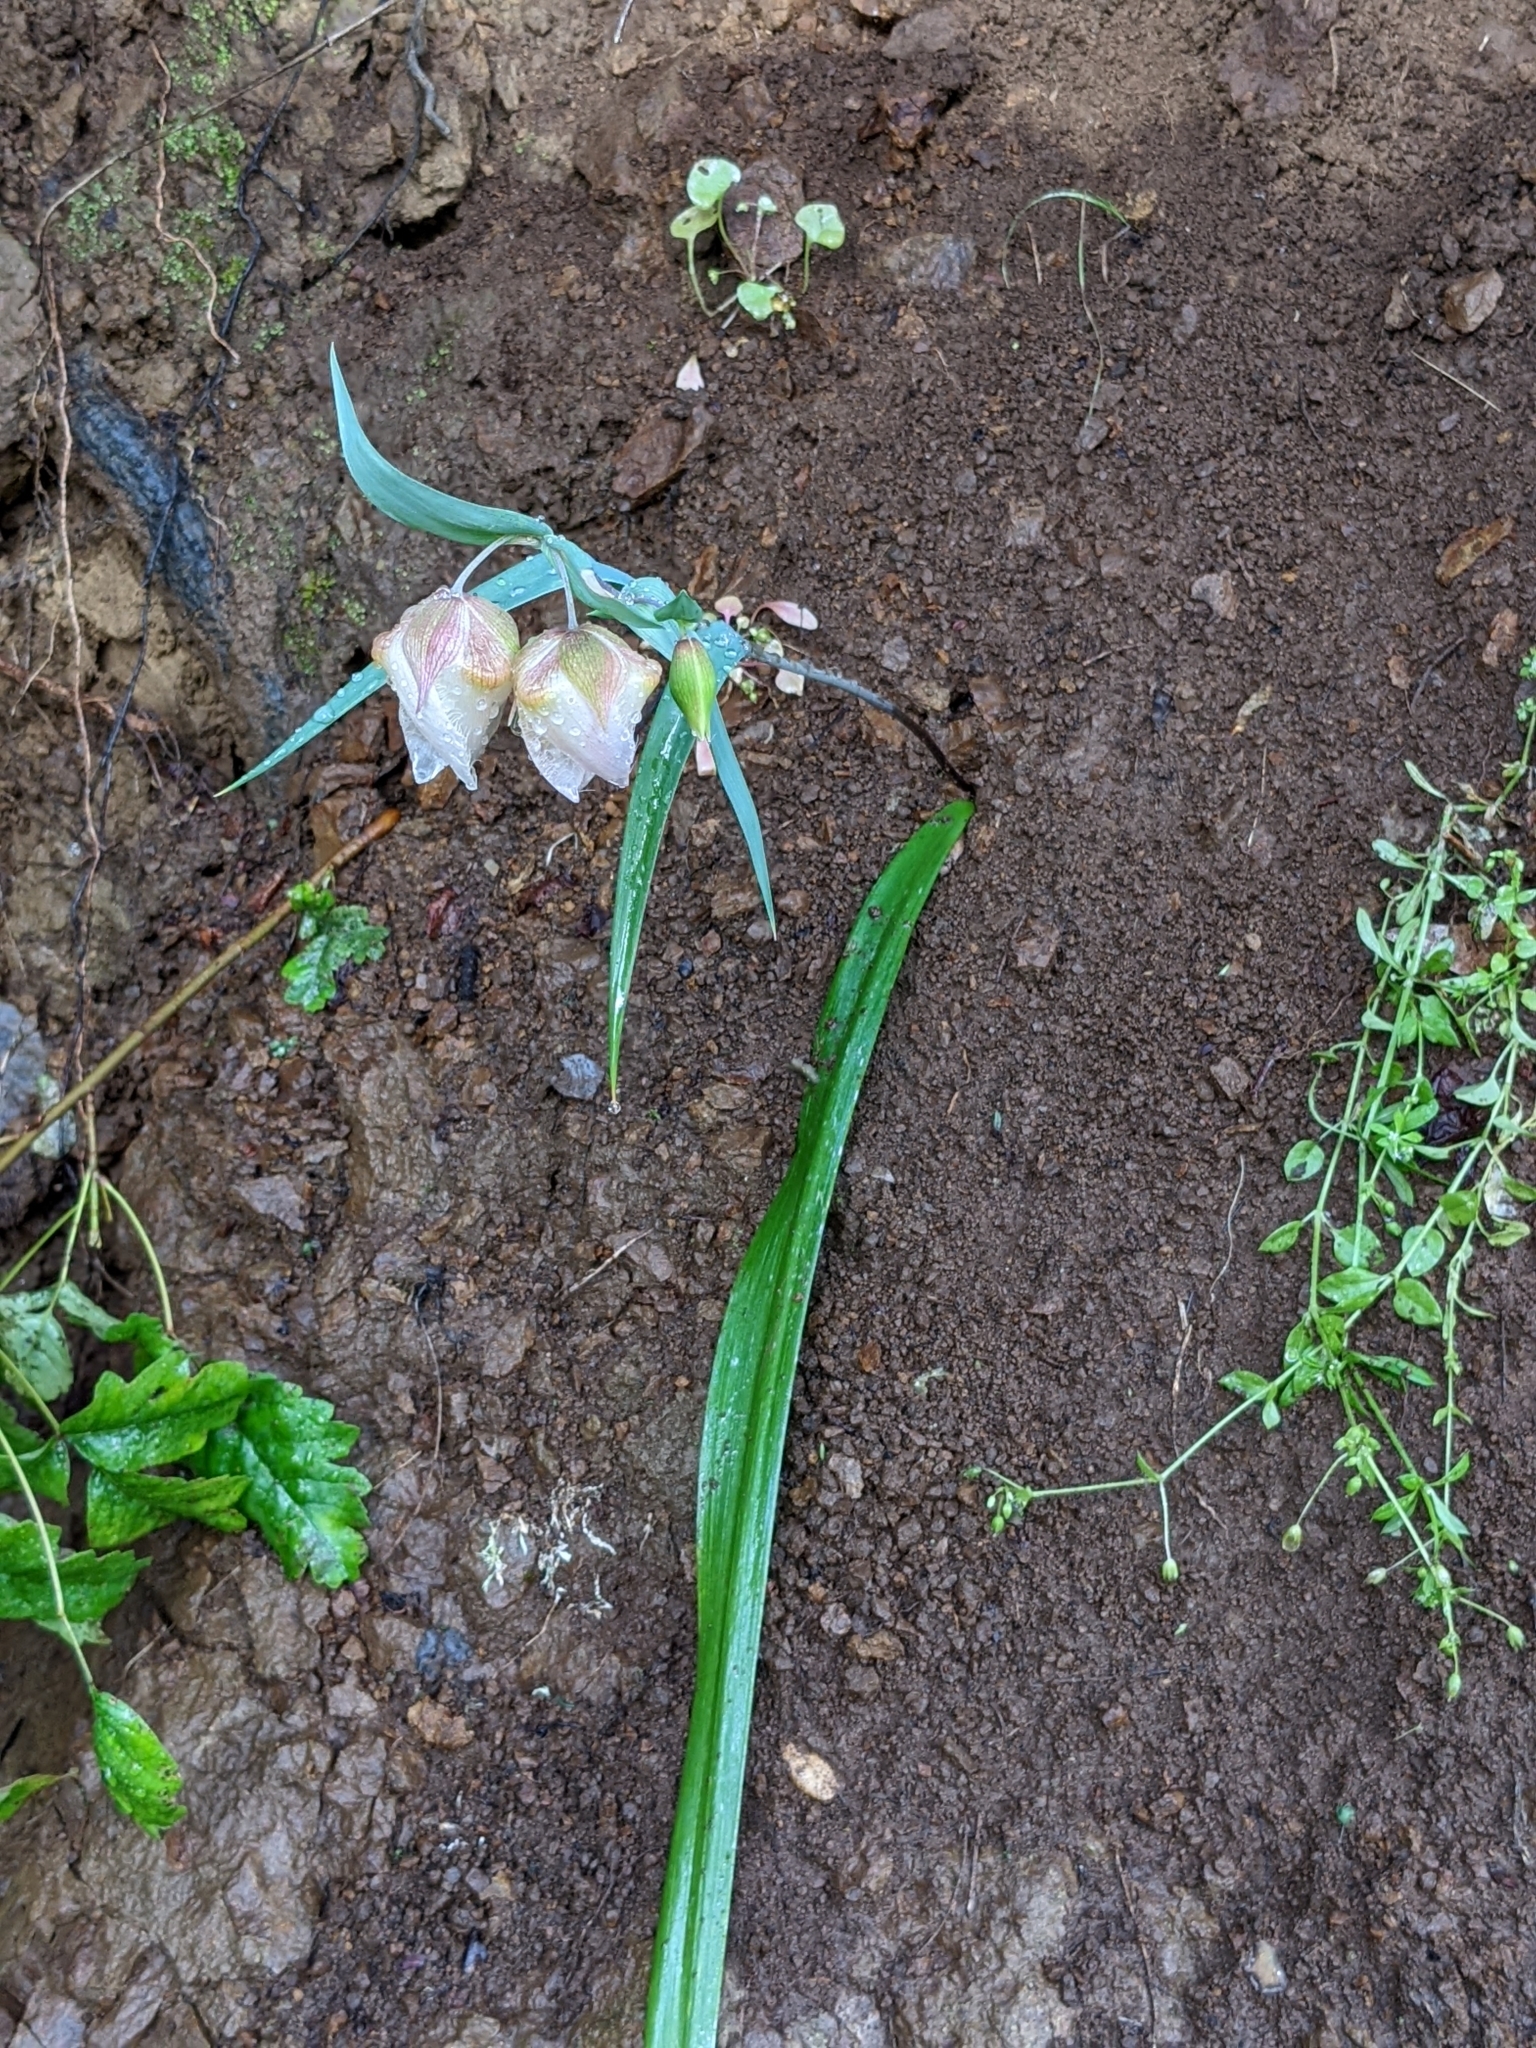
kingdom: Plantae
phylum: Tracheophyta
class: Liliopsida
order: Liliales
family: Liliaceae
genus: Calochortus
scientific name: Calochortus albus
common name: Fairy-lantern
